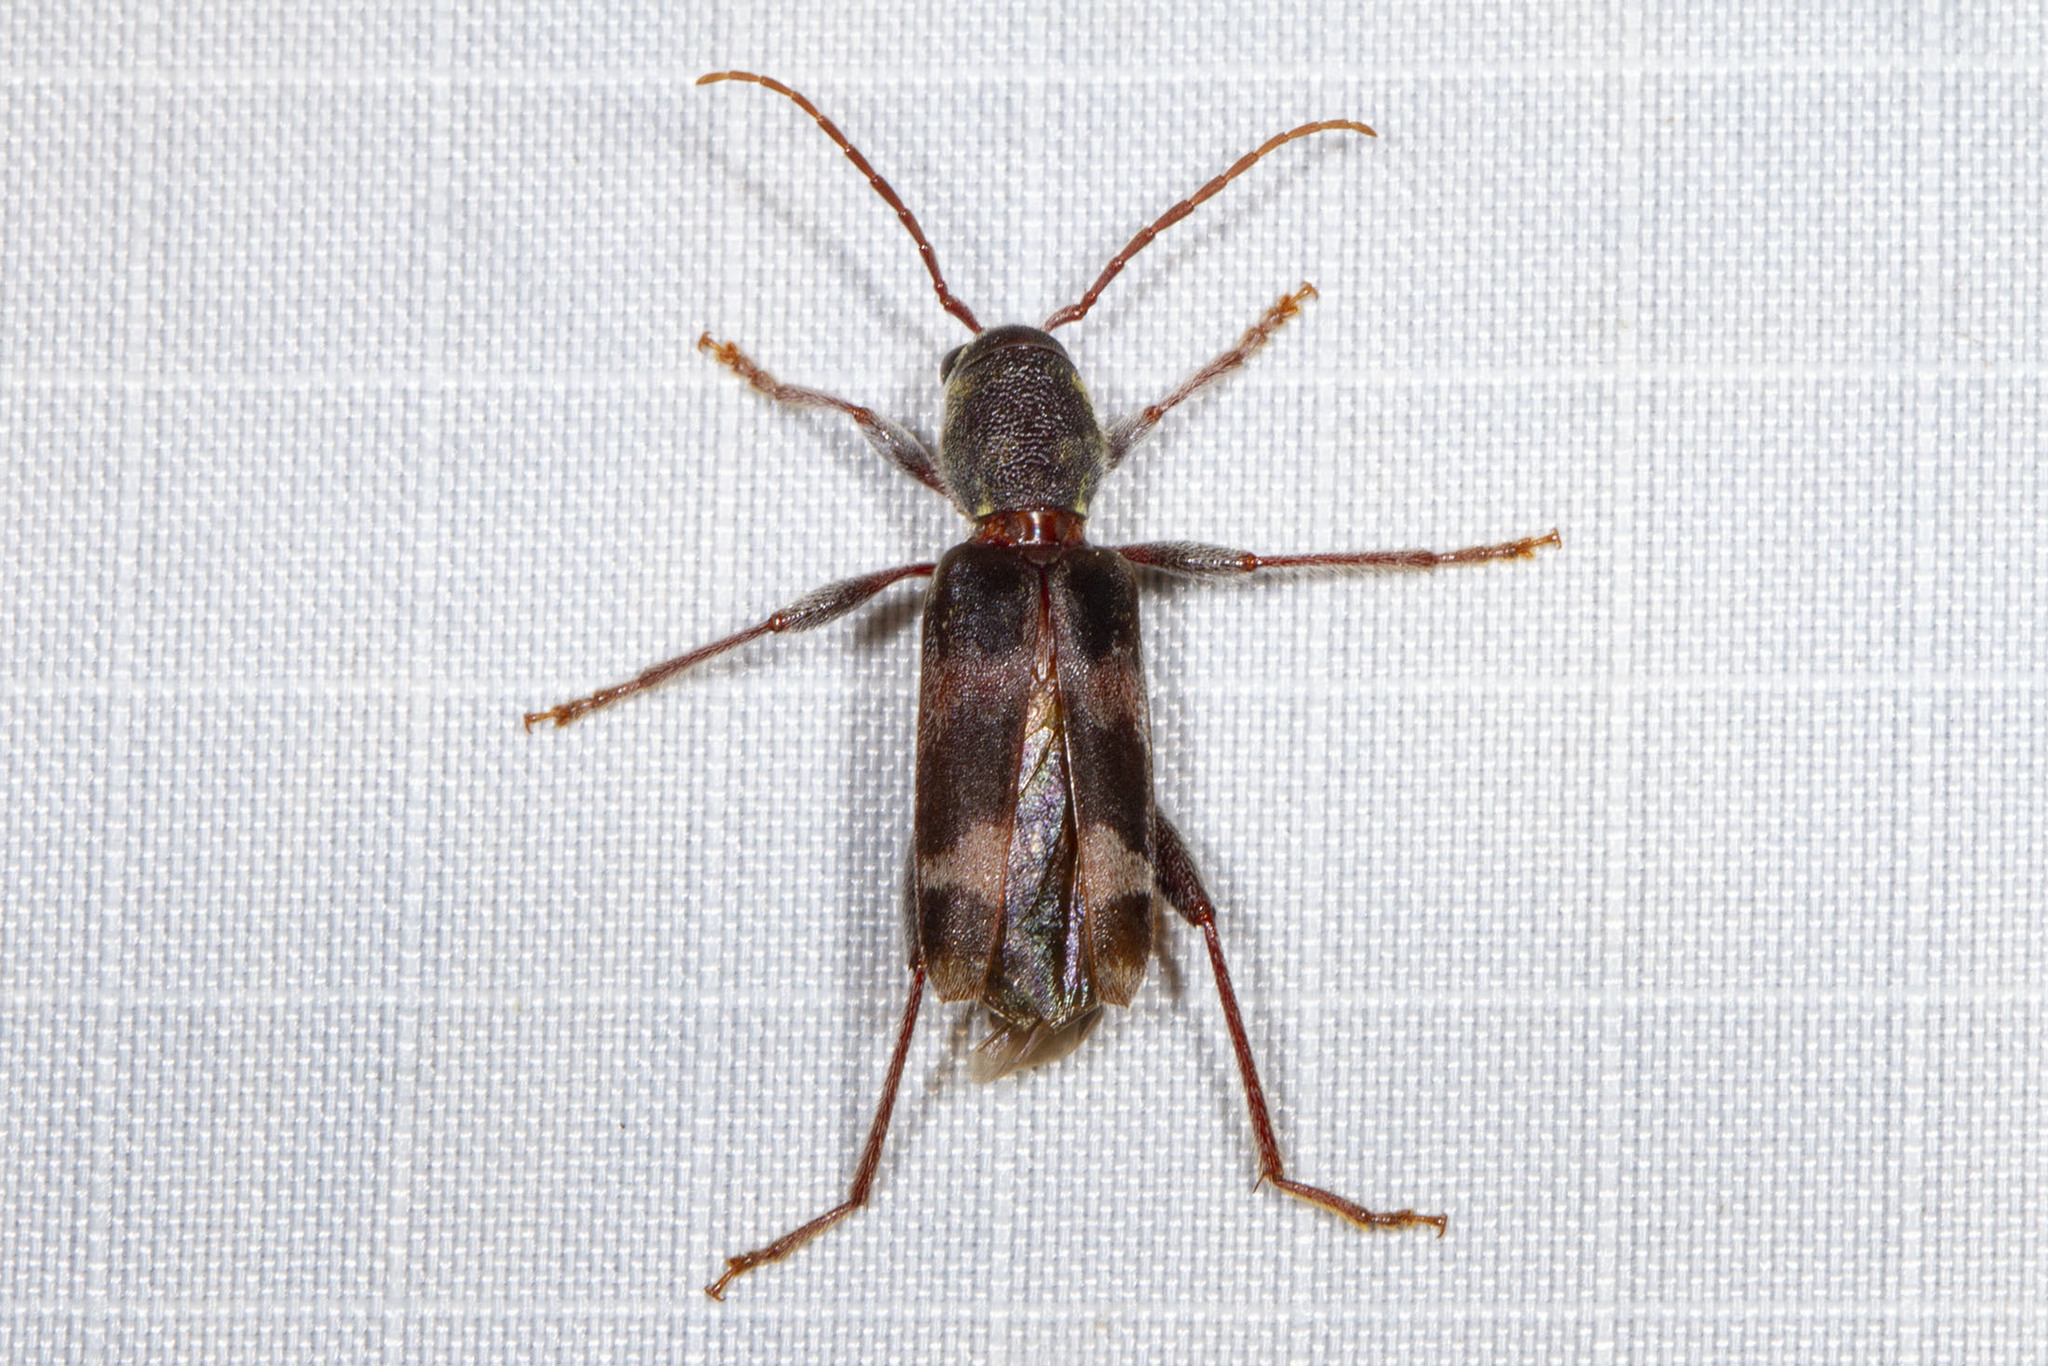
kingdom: Animalia
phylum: Arthropoda
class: Insecta
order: Coleoptera
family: Cerambycidae
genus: Xylotrechus
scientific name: Xylotrechus colonus
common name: Long-horned beetle
